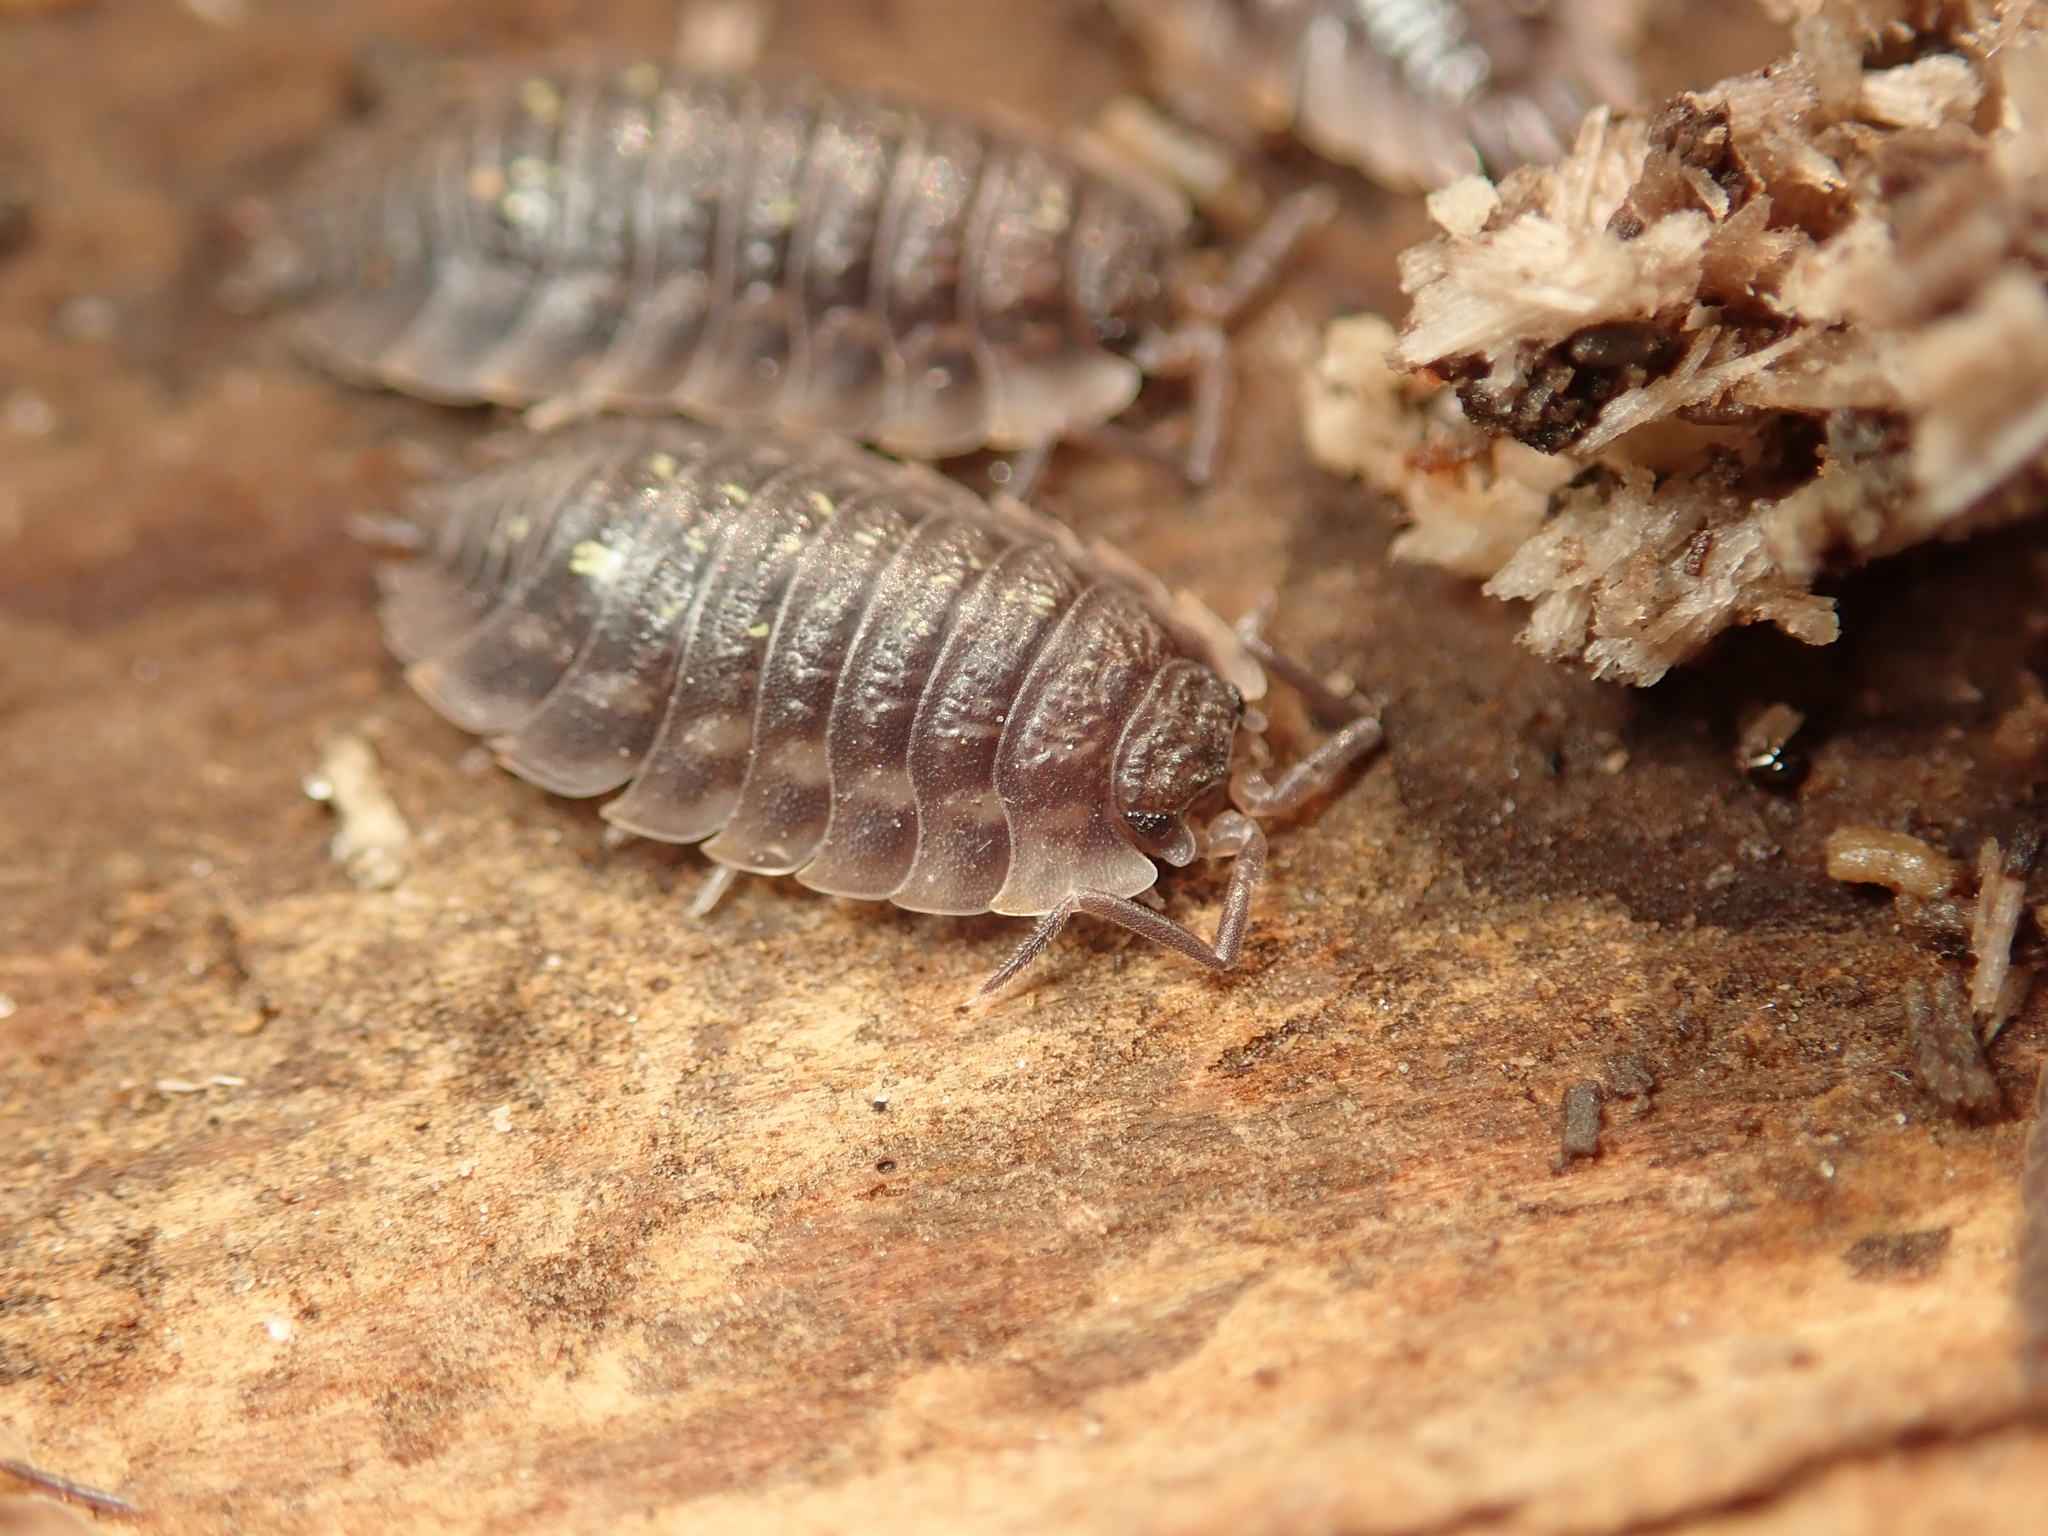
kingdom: Animalia
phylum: Arthropoda
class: Malacostraca
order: Isopoda
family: Oniscidae
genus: Oniscus
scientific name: Oniscus asellus
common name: Common shiny woodlouse
